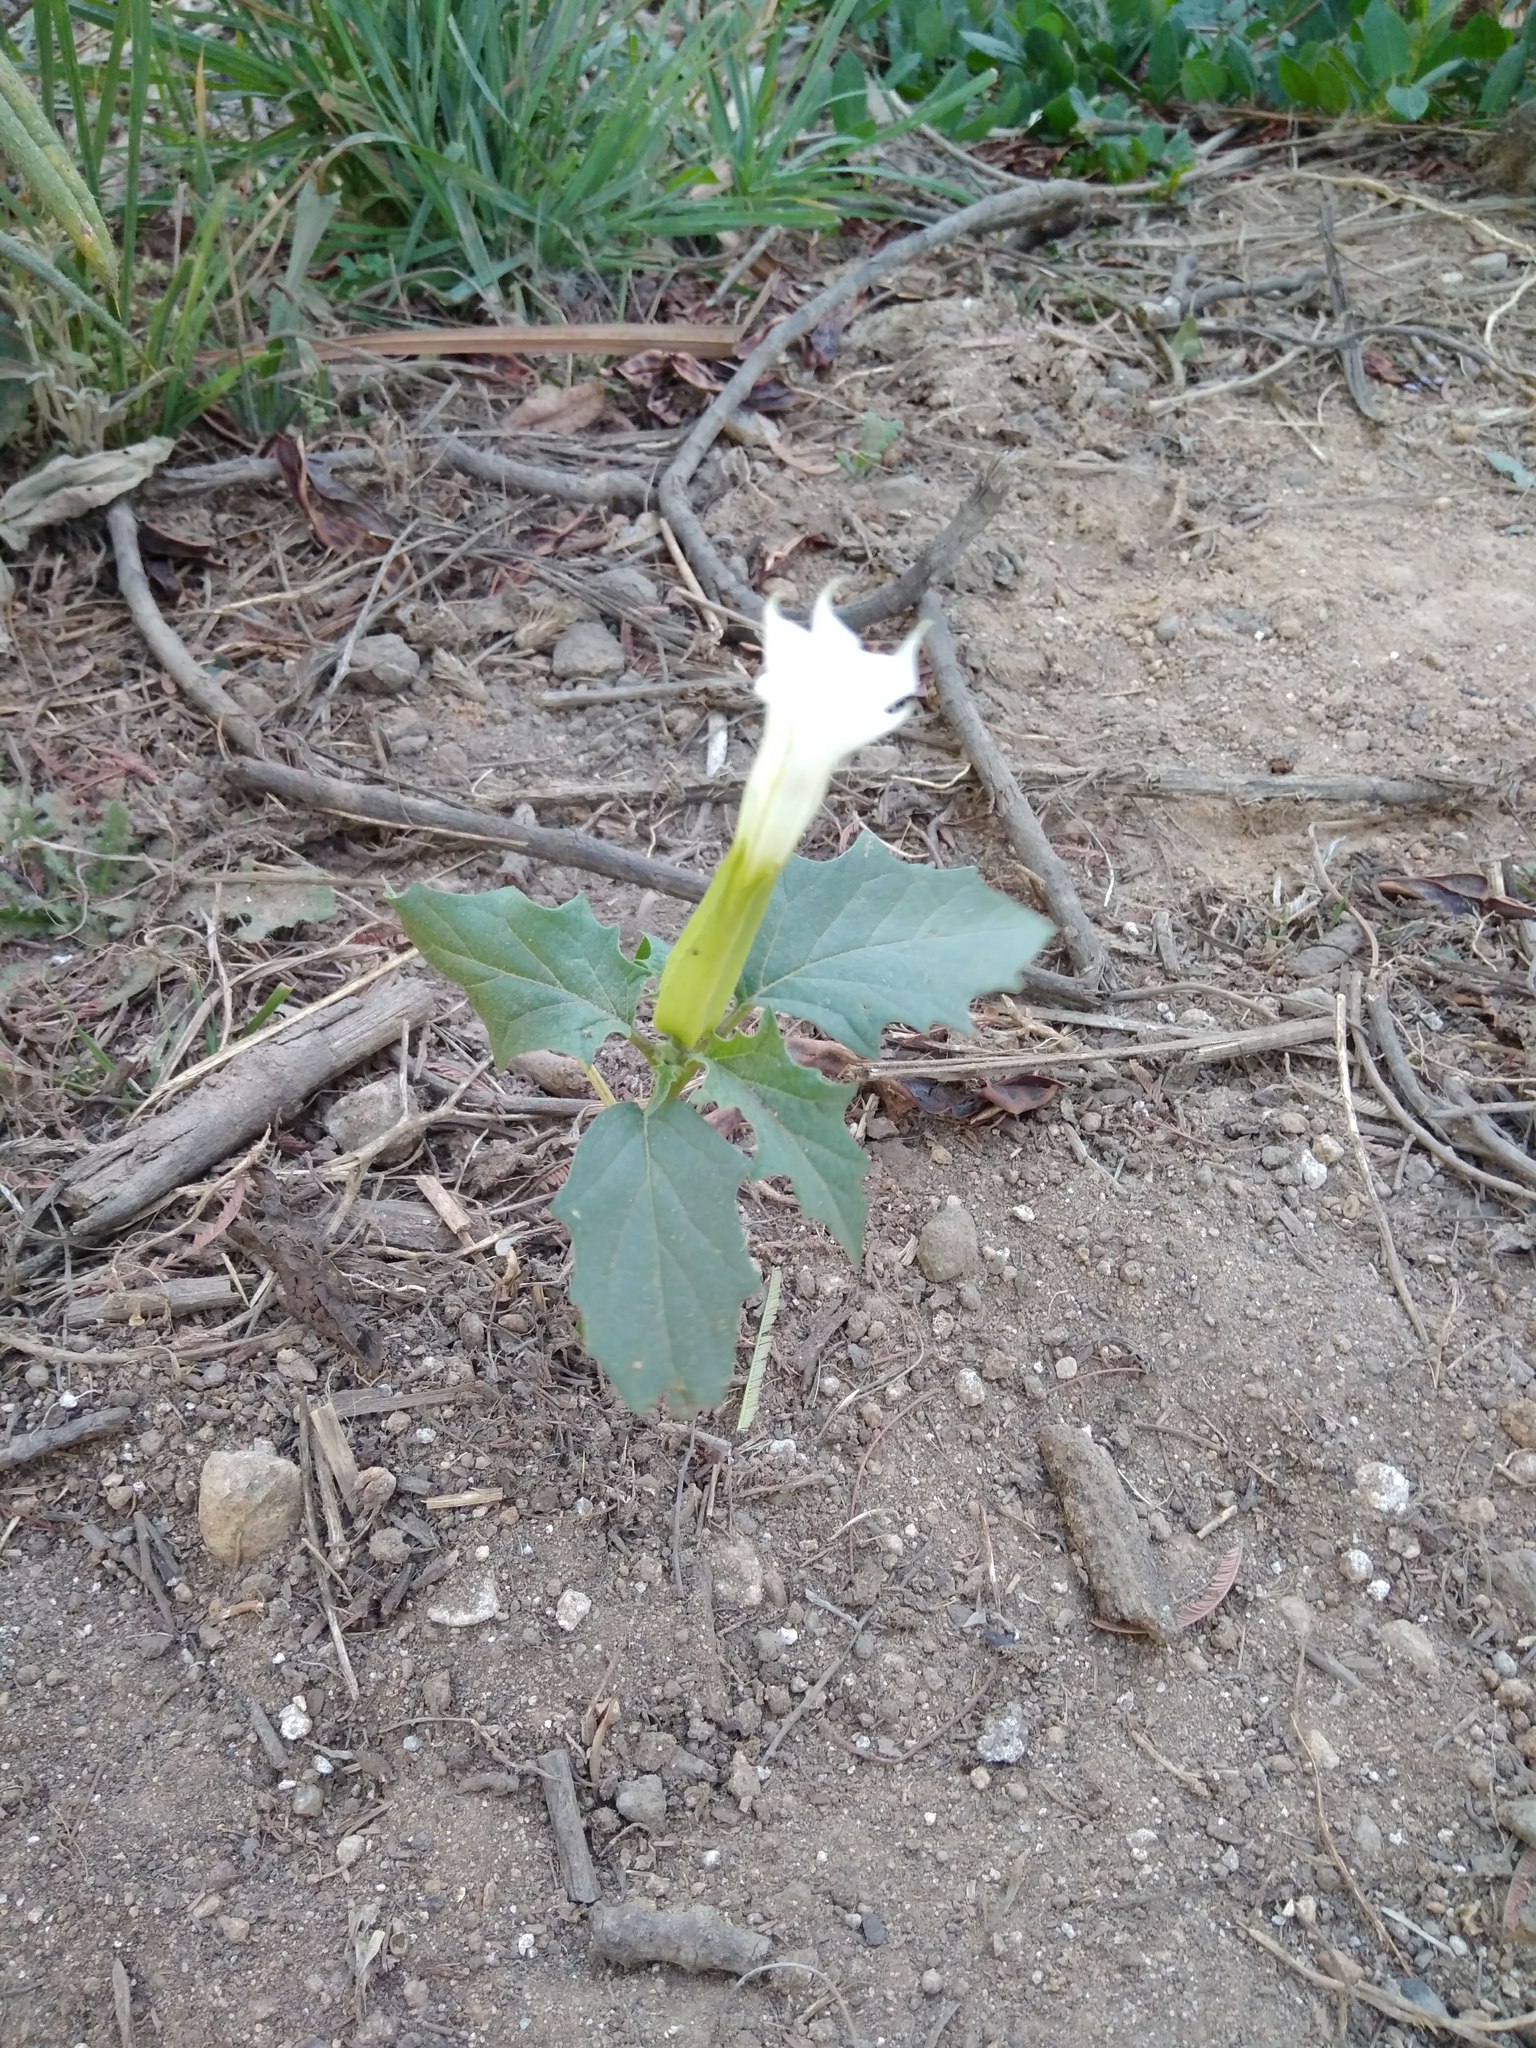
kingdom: Plantae
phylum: Tracheophyta
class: Magnoliopsida
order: Solanales
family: Solanaceae
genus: Datura
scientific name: Datura stramonium
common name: Thorn-apple
